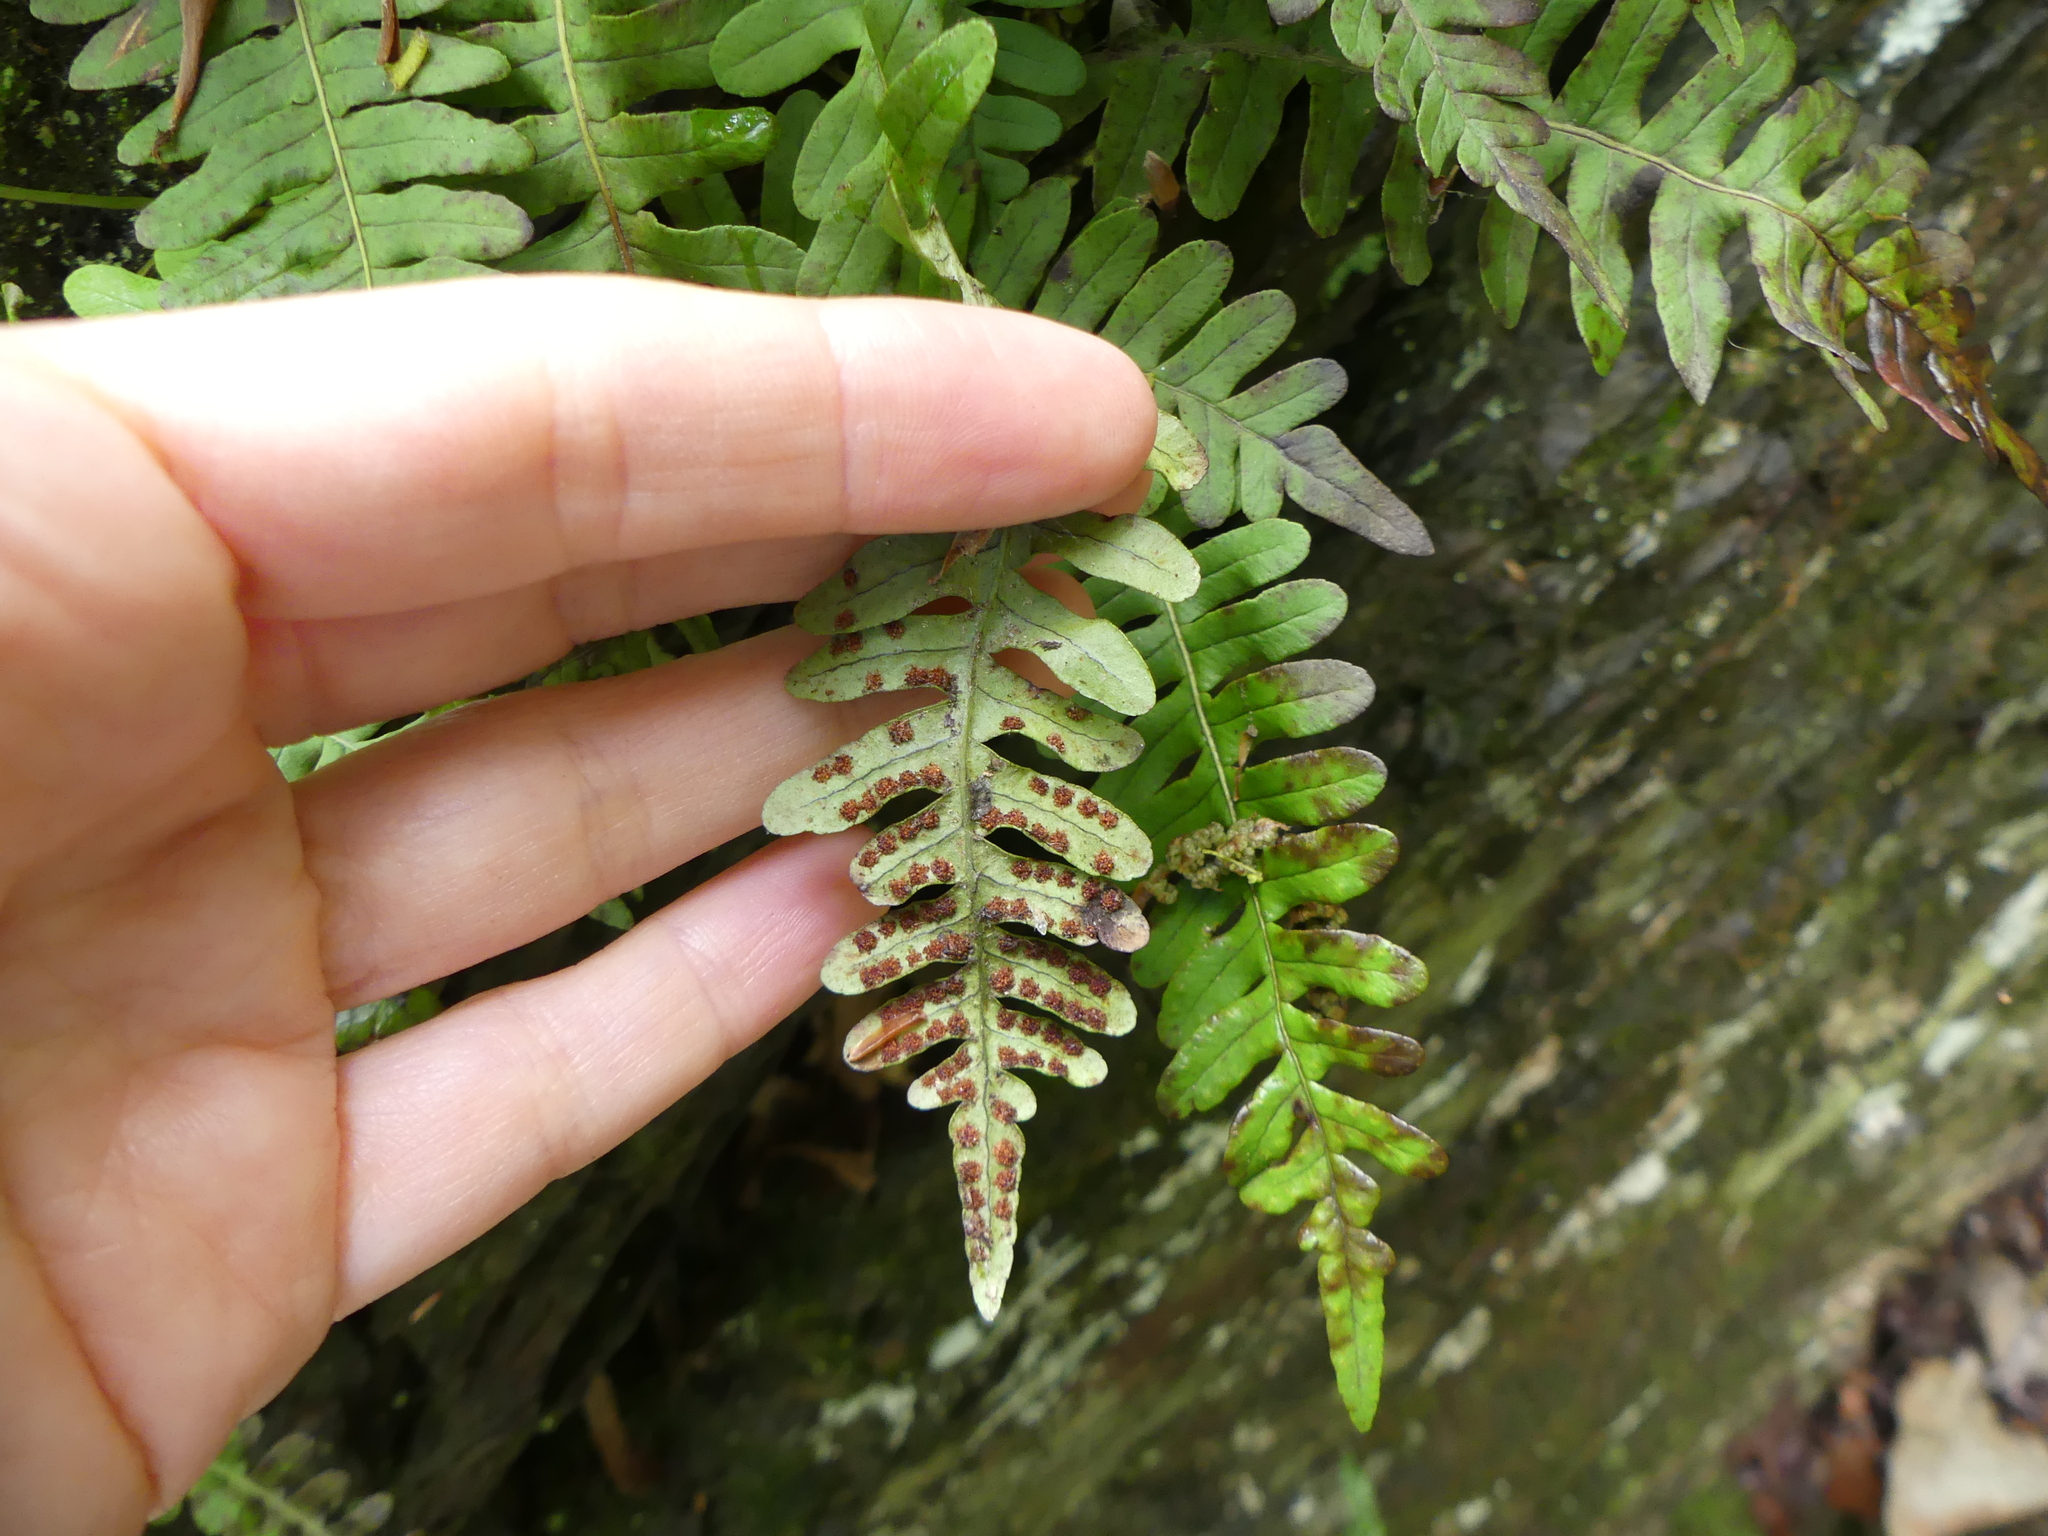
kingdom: Plantae
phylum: Tracheophyta
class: Polypodiopsida
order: Polypodiales
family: Polypodiaceae
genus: Polypodium
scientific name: Polypodium virginianum
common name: American wall fern
